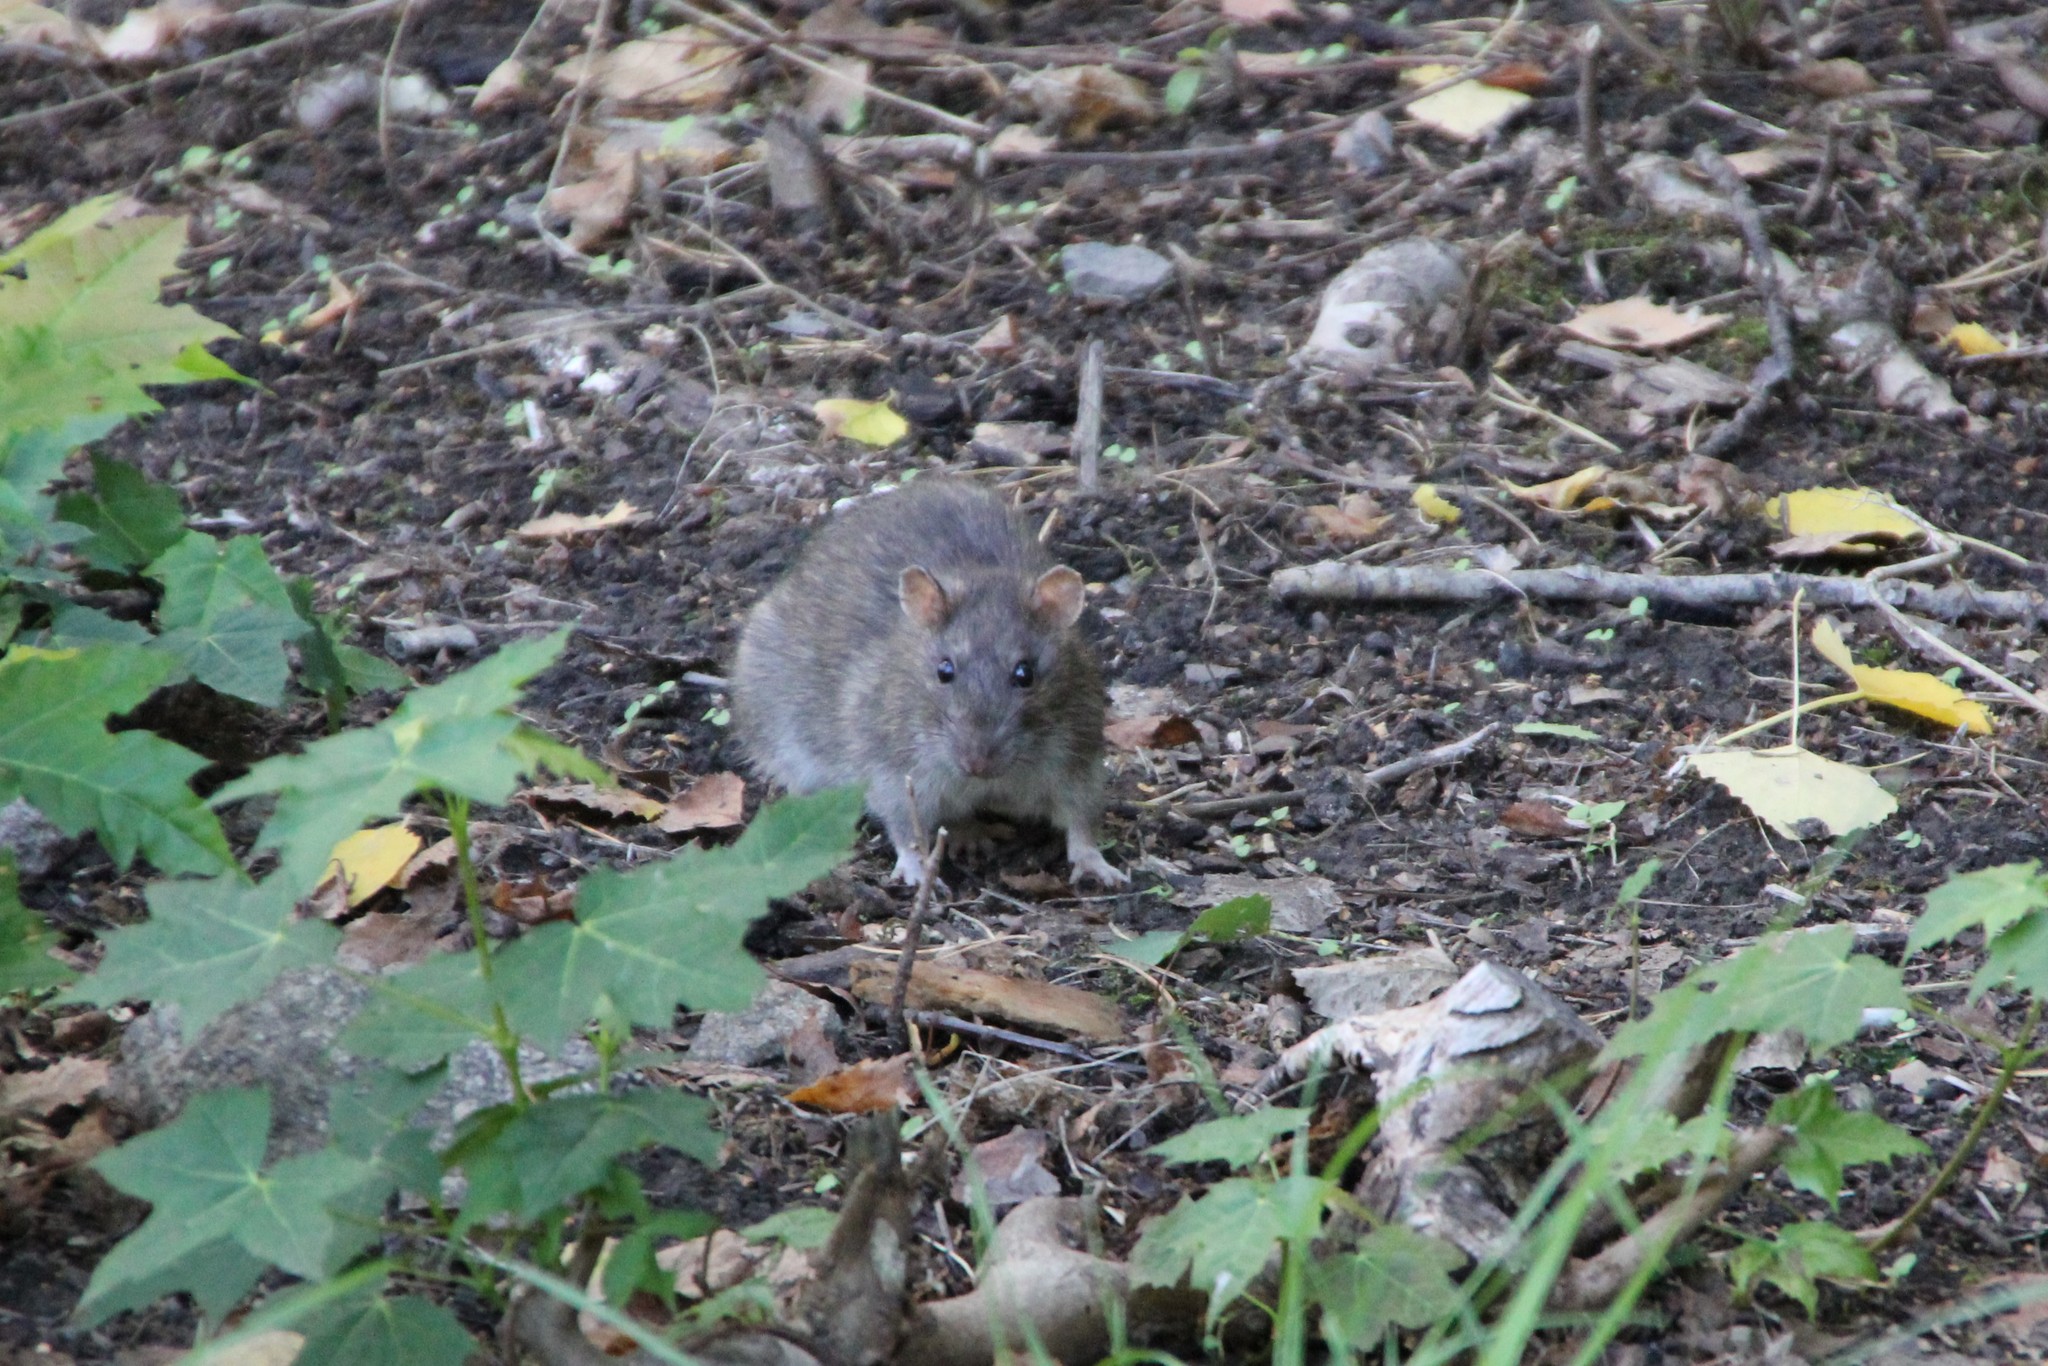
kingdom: Animalia
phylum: Chordata
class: Mammalia
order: Rodentia
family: Muridae
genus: Rattus
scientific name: Rattus norvegicus
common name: Brown rat
